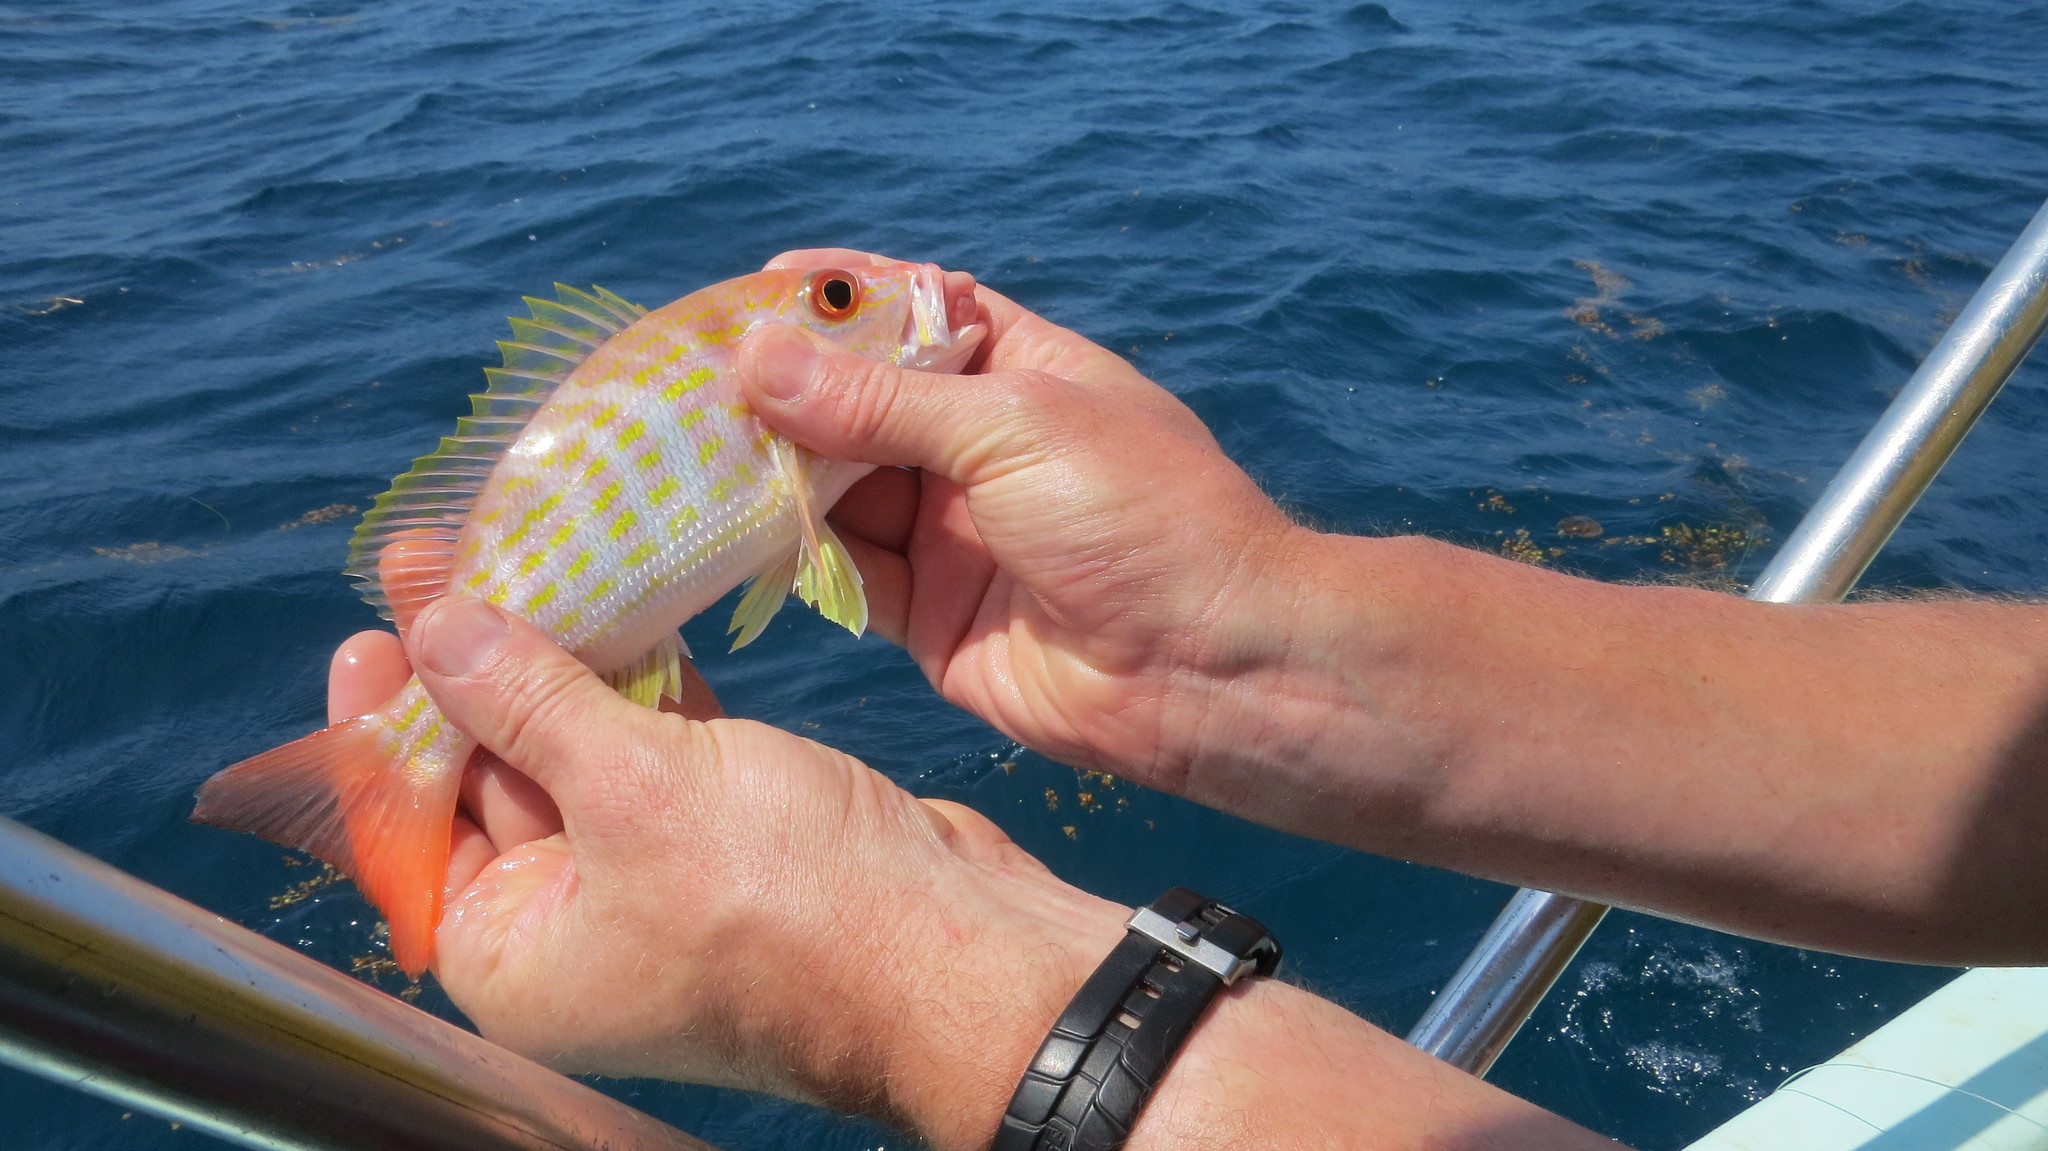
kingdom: Animalia
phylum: Chordata
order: Perciformes
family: Lutjanidae
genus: Lutjanus
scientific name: Lutjanus synagris
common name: Lane snapper
